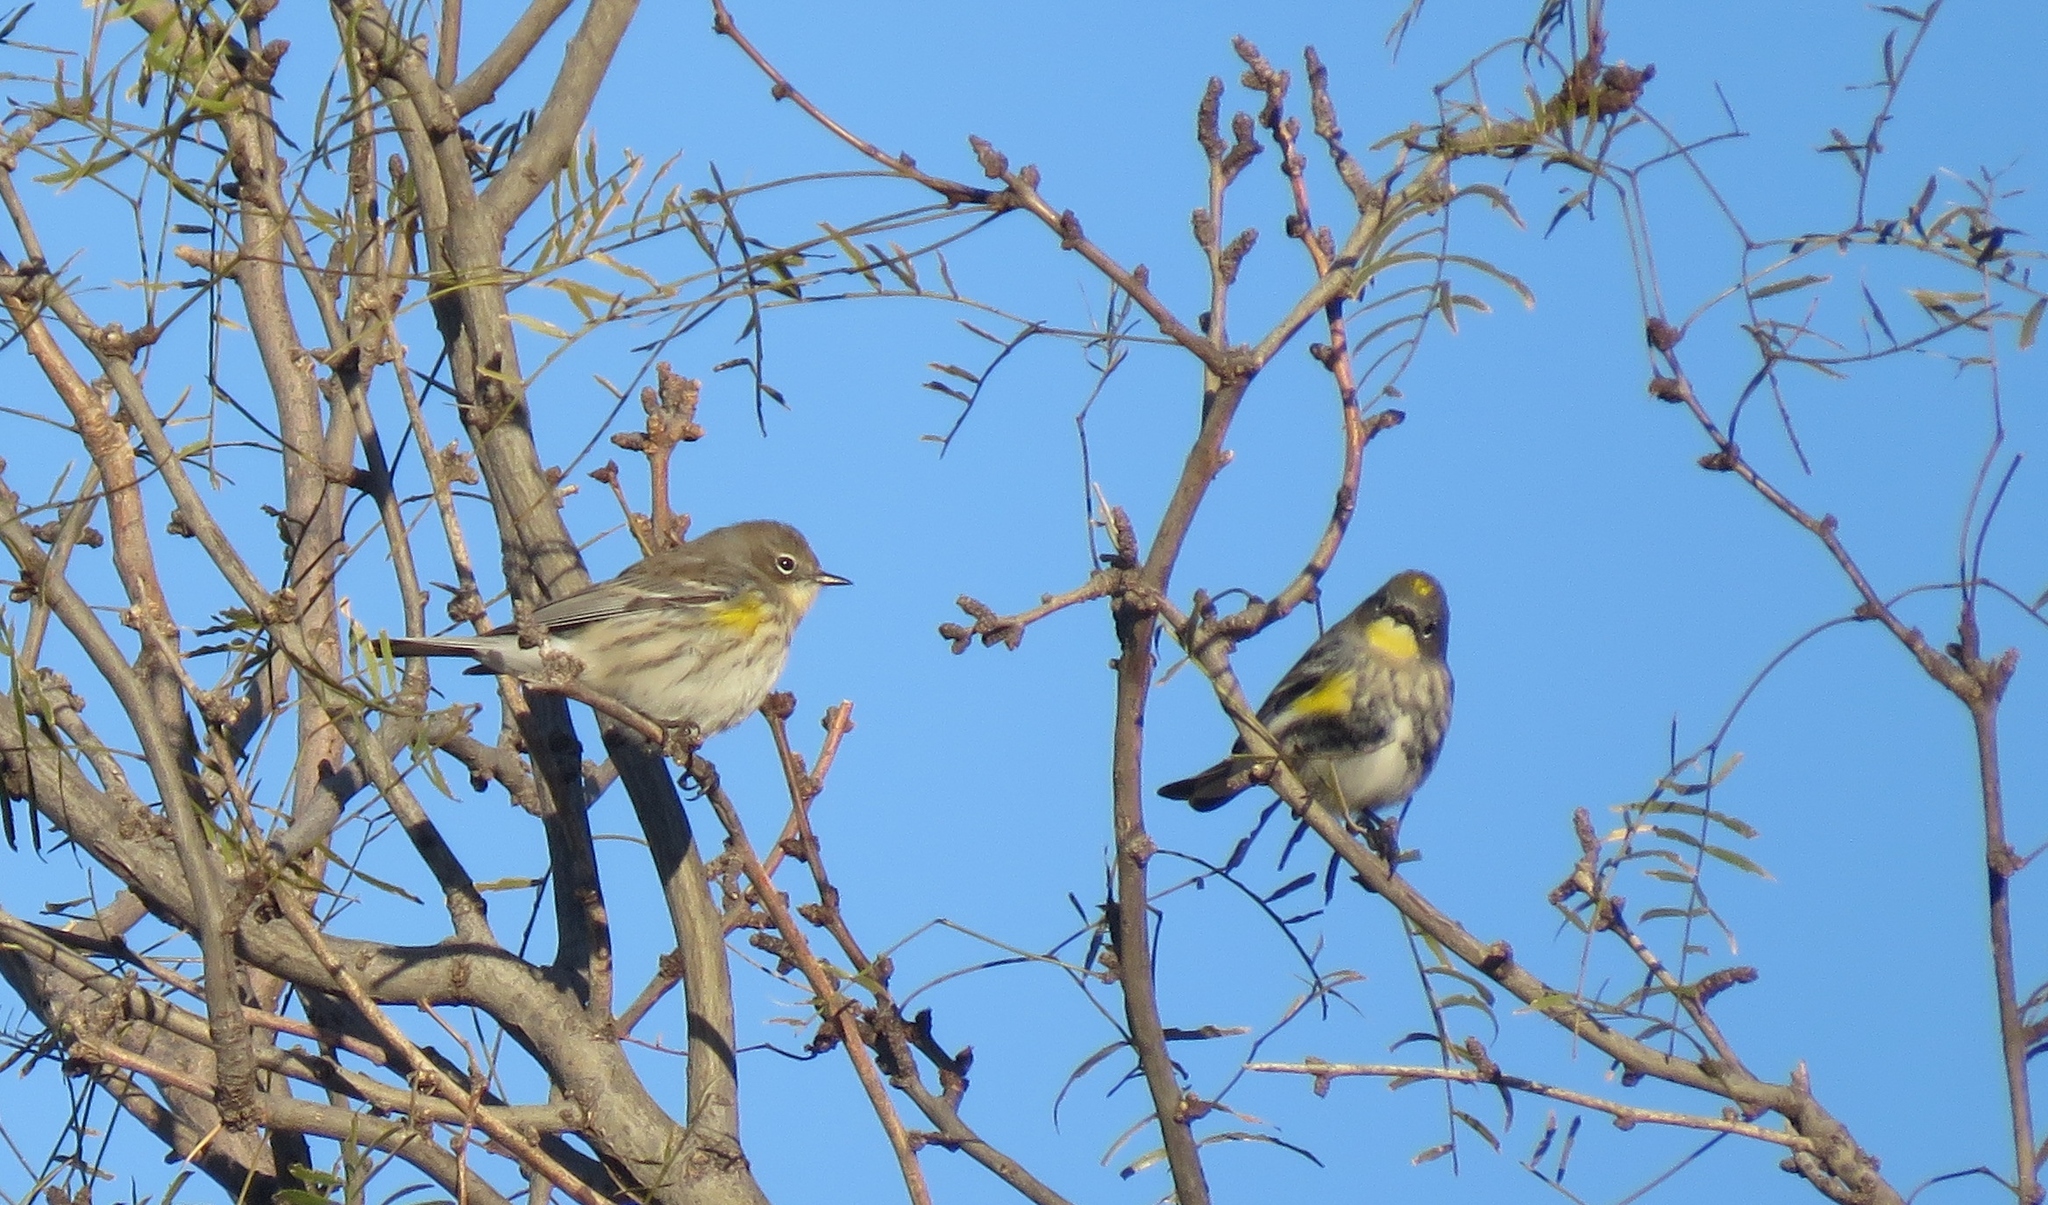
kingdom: Animalia
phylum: Chordata
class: Aves
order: Passeriformes
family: Parulidae
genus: Setophaga
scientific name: Setophaga coronata
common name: Myrtle warbler
